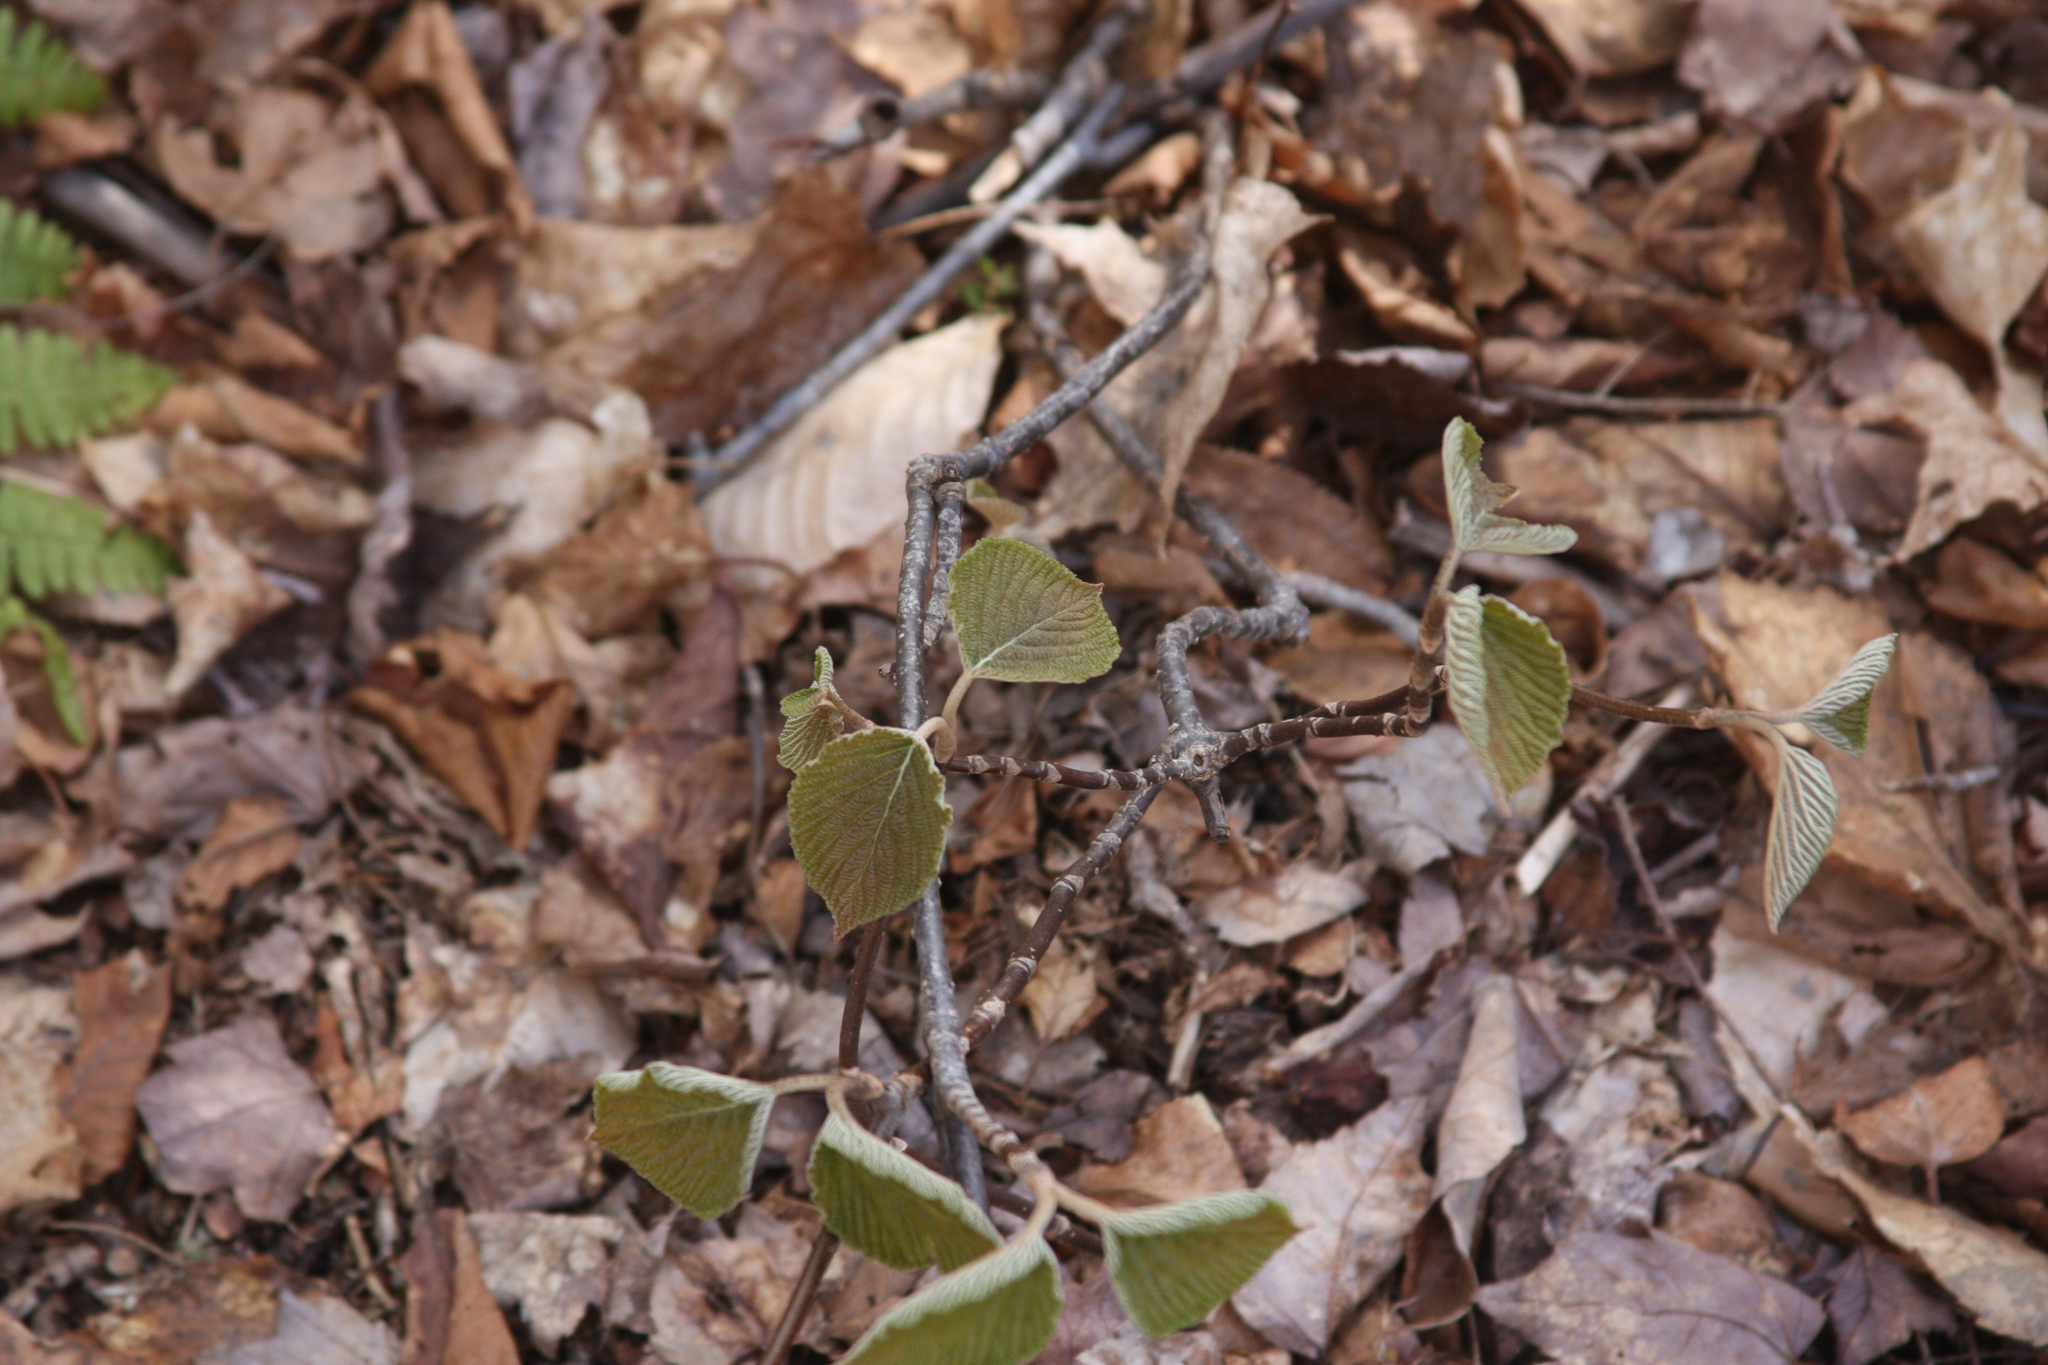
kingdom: Plantae
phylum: Tracheophyta
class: Magnoliopsida
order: Dipsacales
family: Viburnaceae
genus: Viburnum
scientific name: Viburnum lantanoides
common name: Hobblebush
